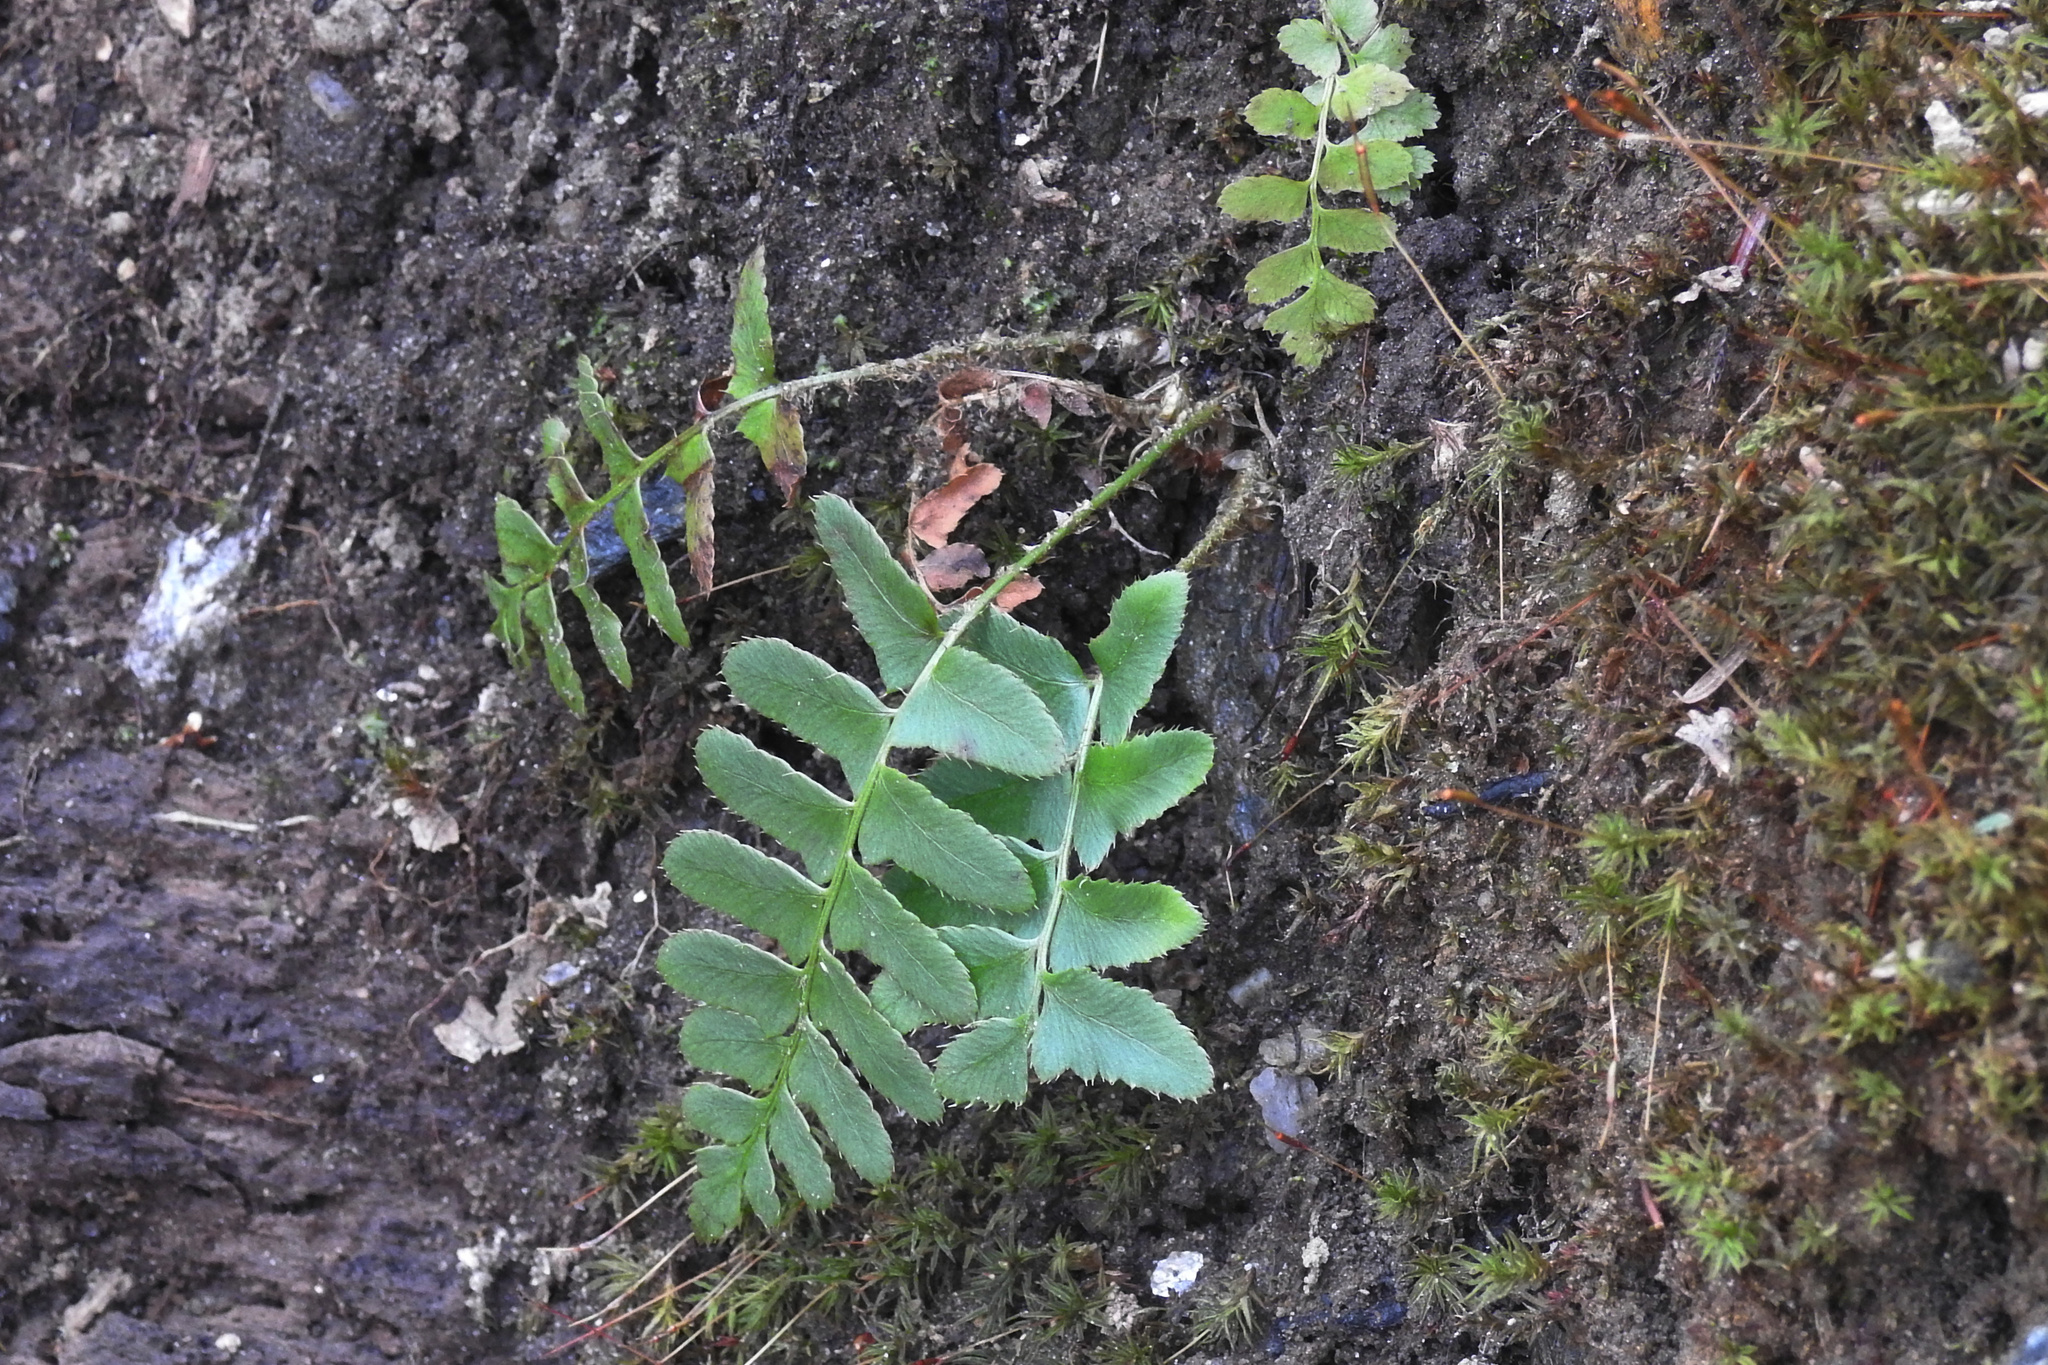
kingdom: Plantae
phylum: Tracheophyta
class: Polypodiopsida
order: Polypodiales
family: Dryopteridaceae
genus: Polystichum
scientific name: Polystichum acrostichoides
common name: Christmas fern
